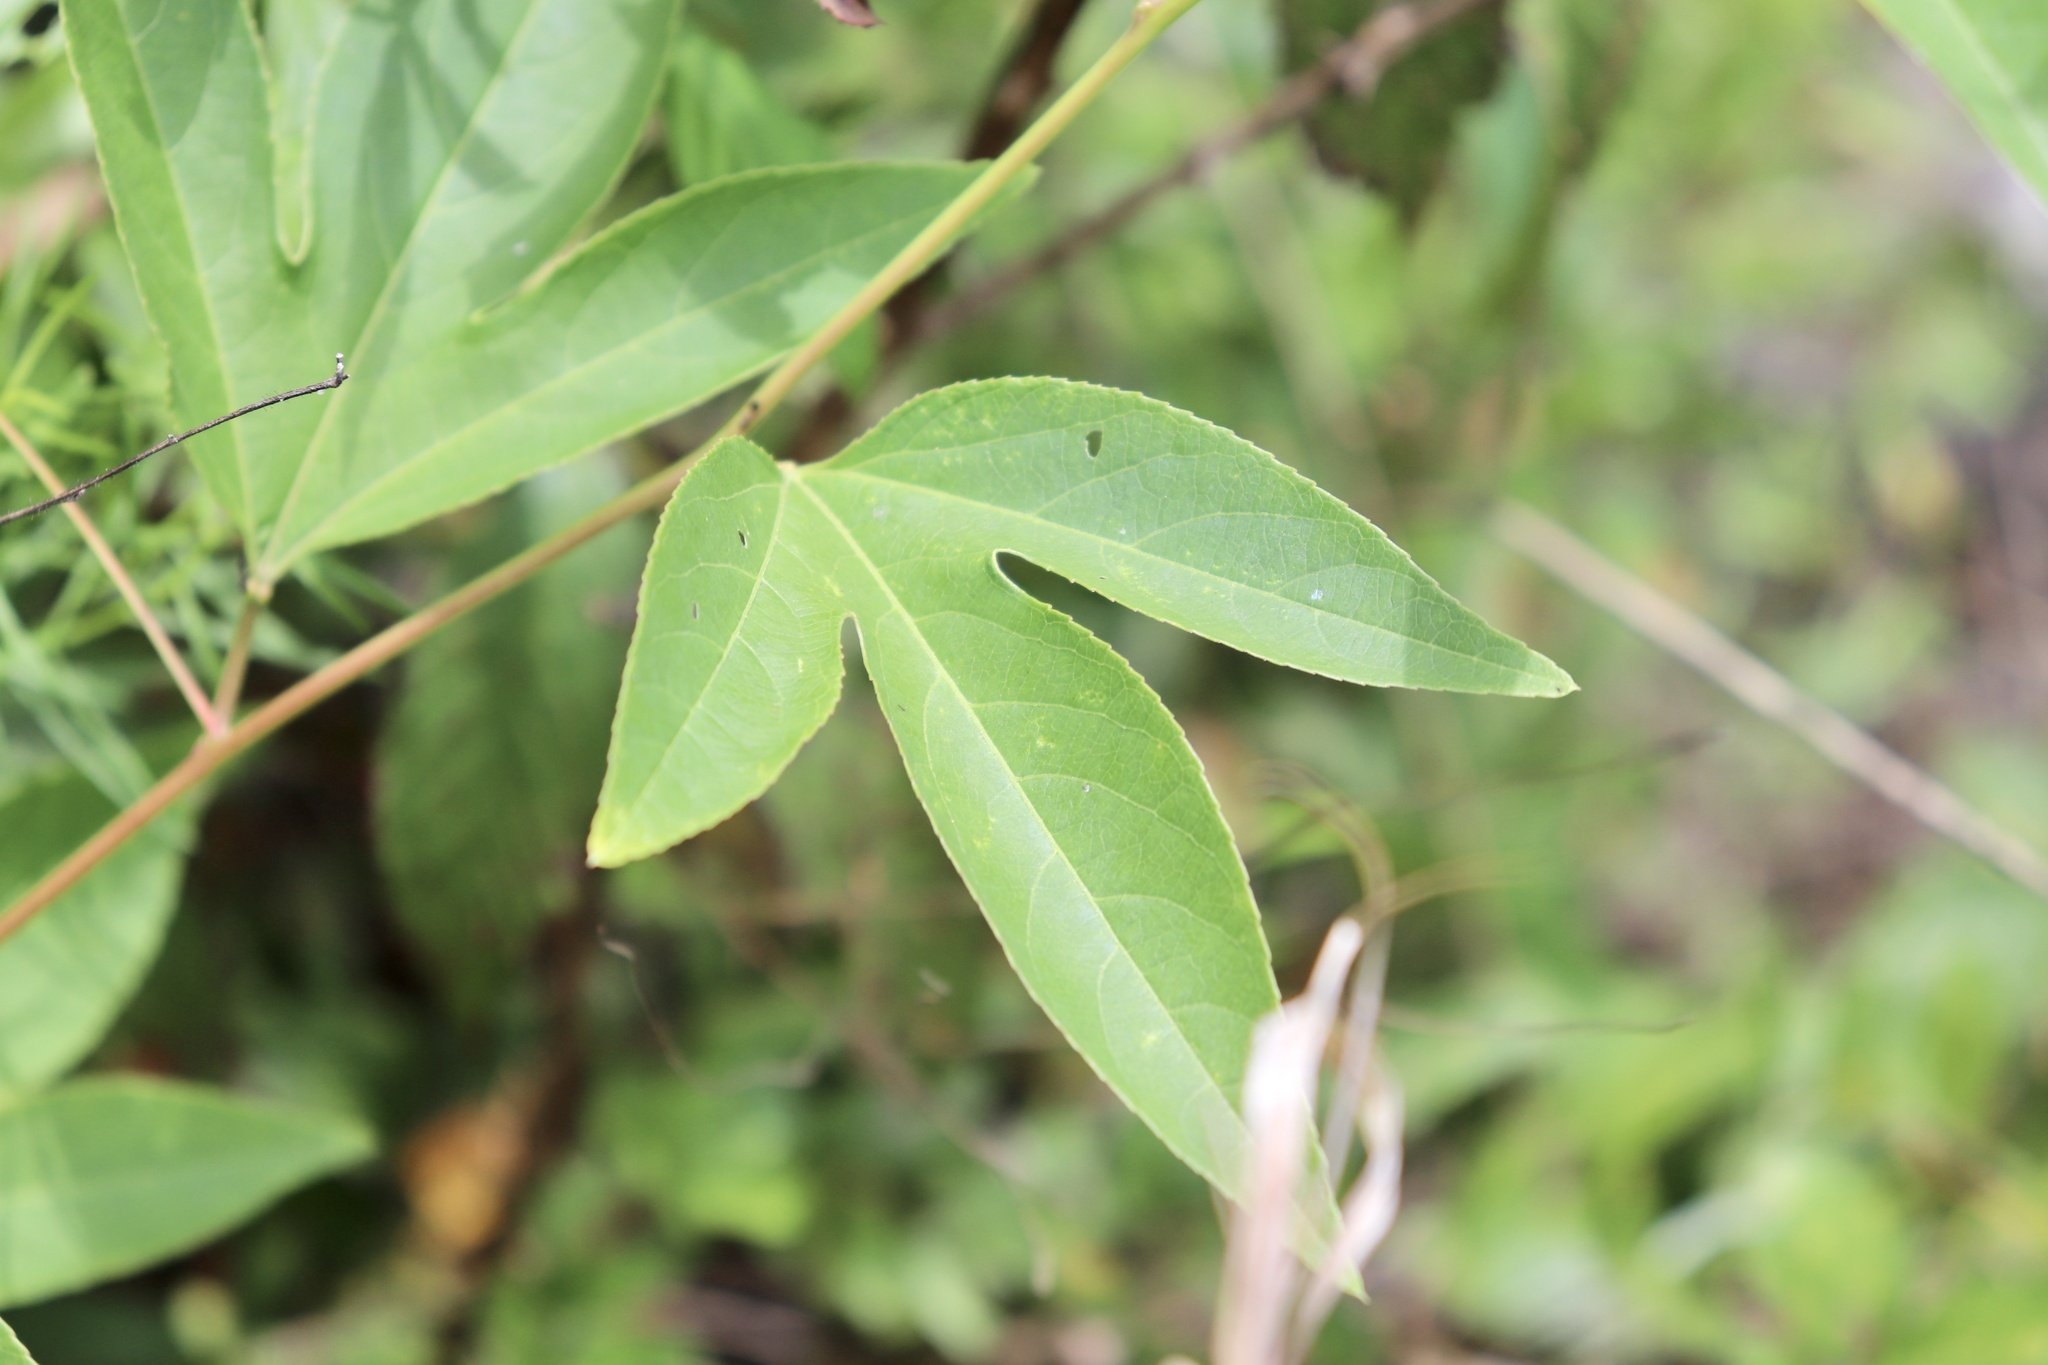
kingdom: Plantae
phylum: Tracheophyta
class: Magnoliopsida
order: Malpighiales
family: Passifloraceae
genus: Passiflora
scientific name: Passiflora incarnata
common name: Apricot-vine
